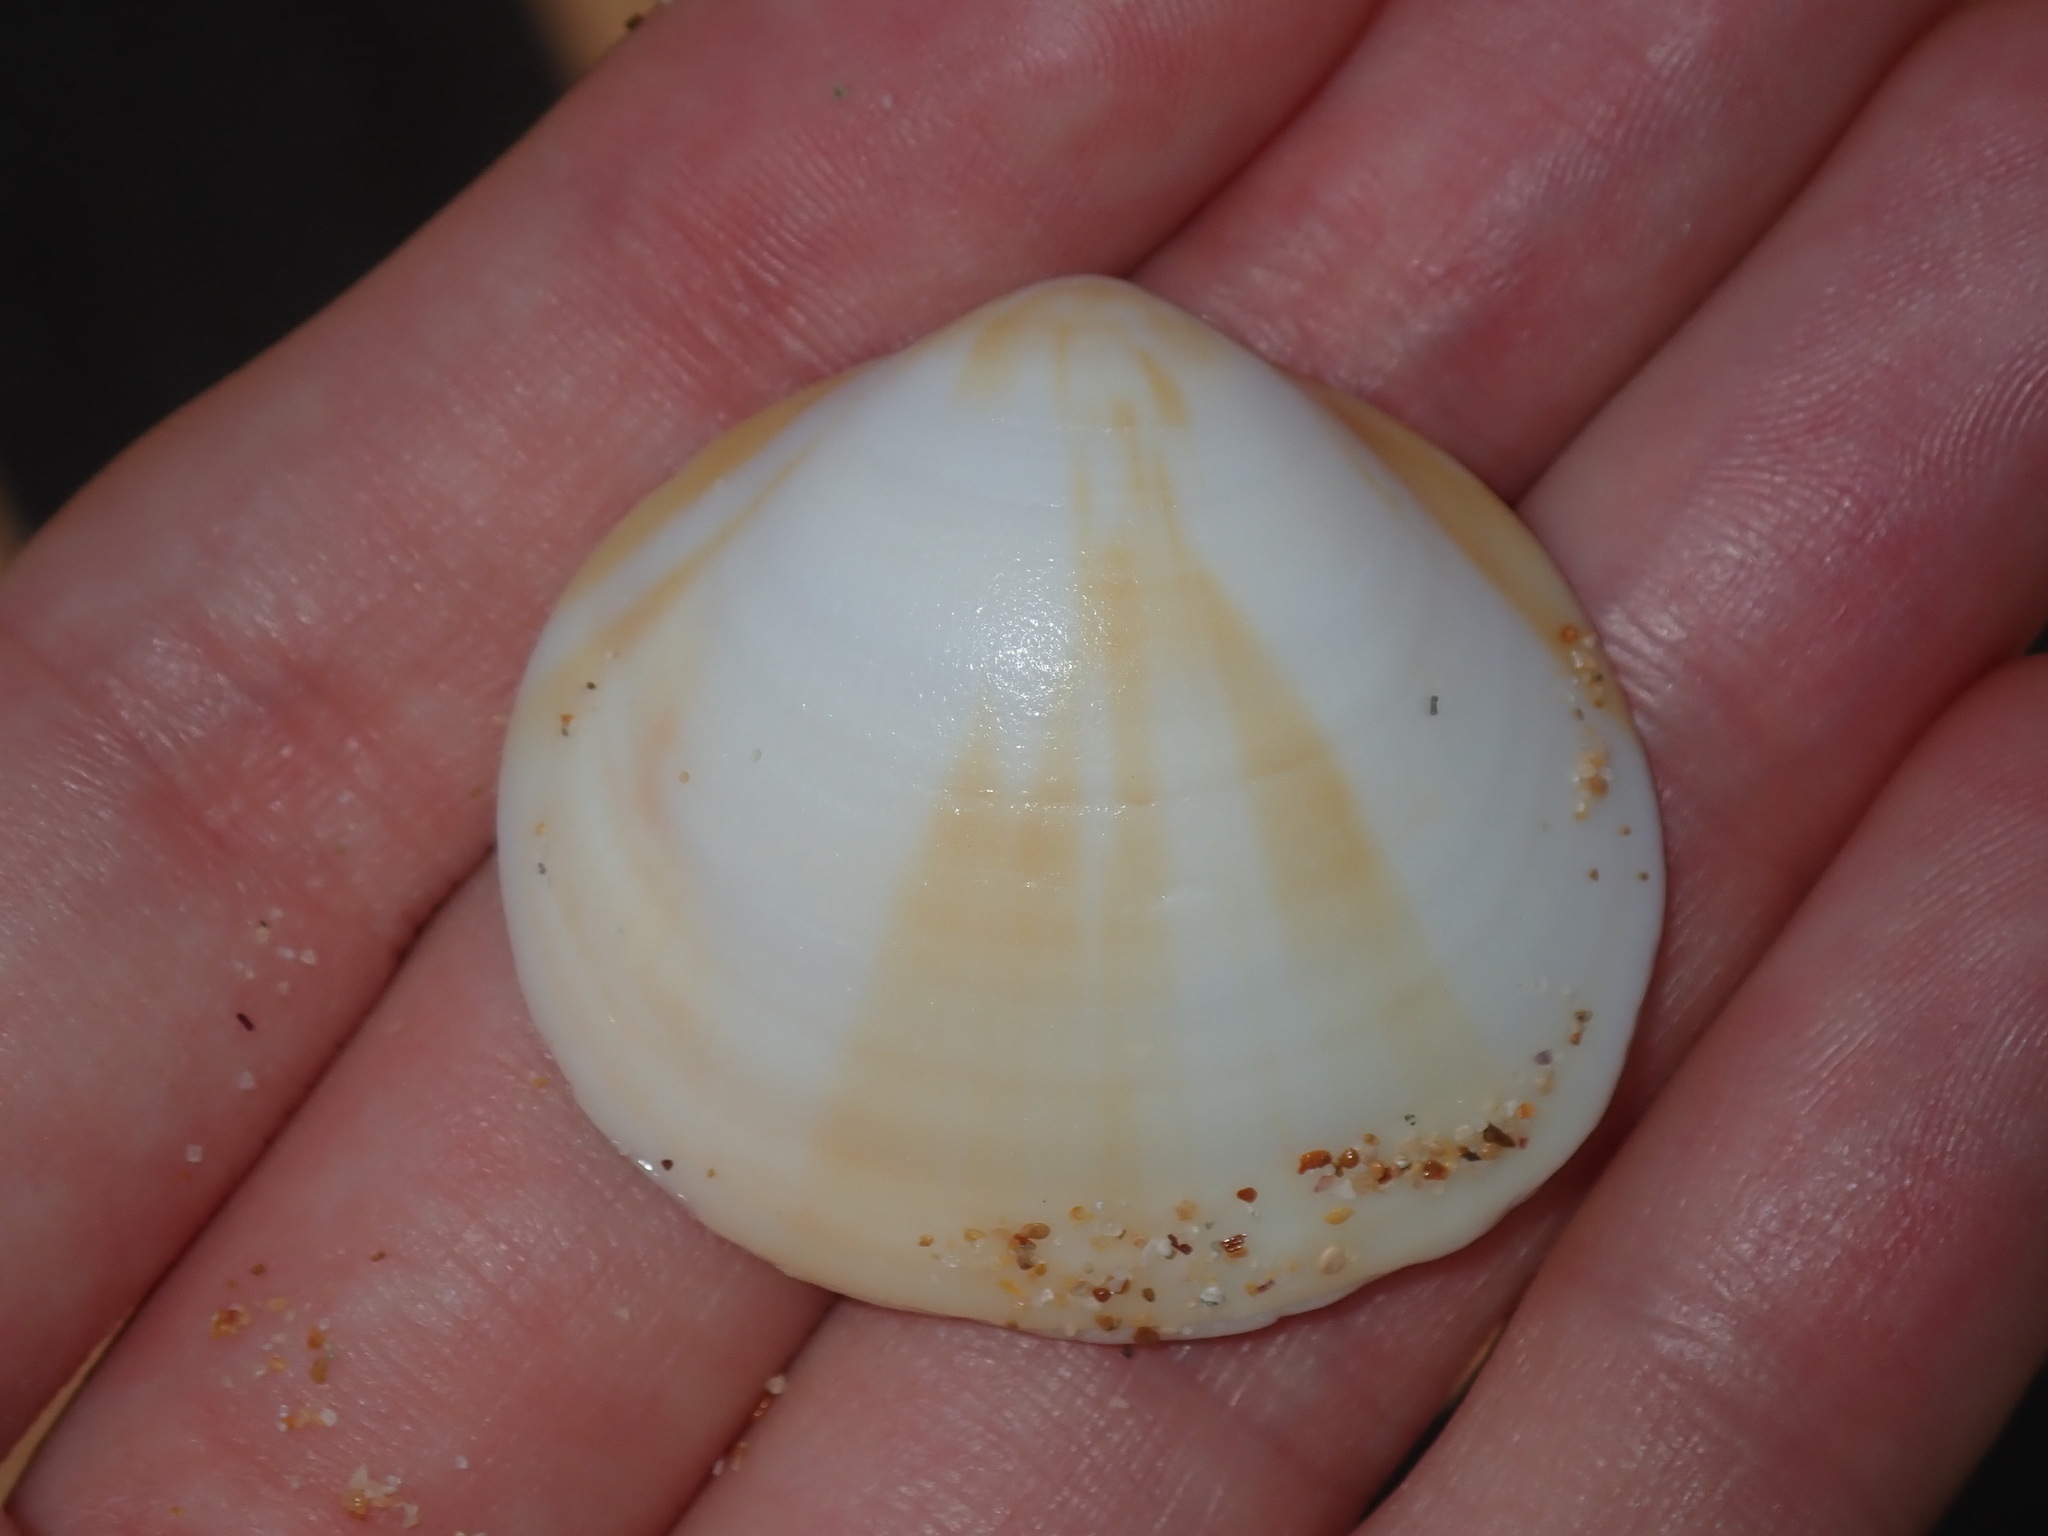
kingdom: Animalia
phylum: Mollusca
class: Bivalvia
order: Arcida
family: Glycymerididae
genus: Glycymeris
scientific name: Glycymeris grayana
